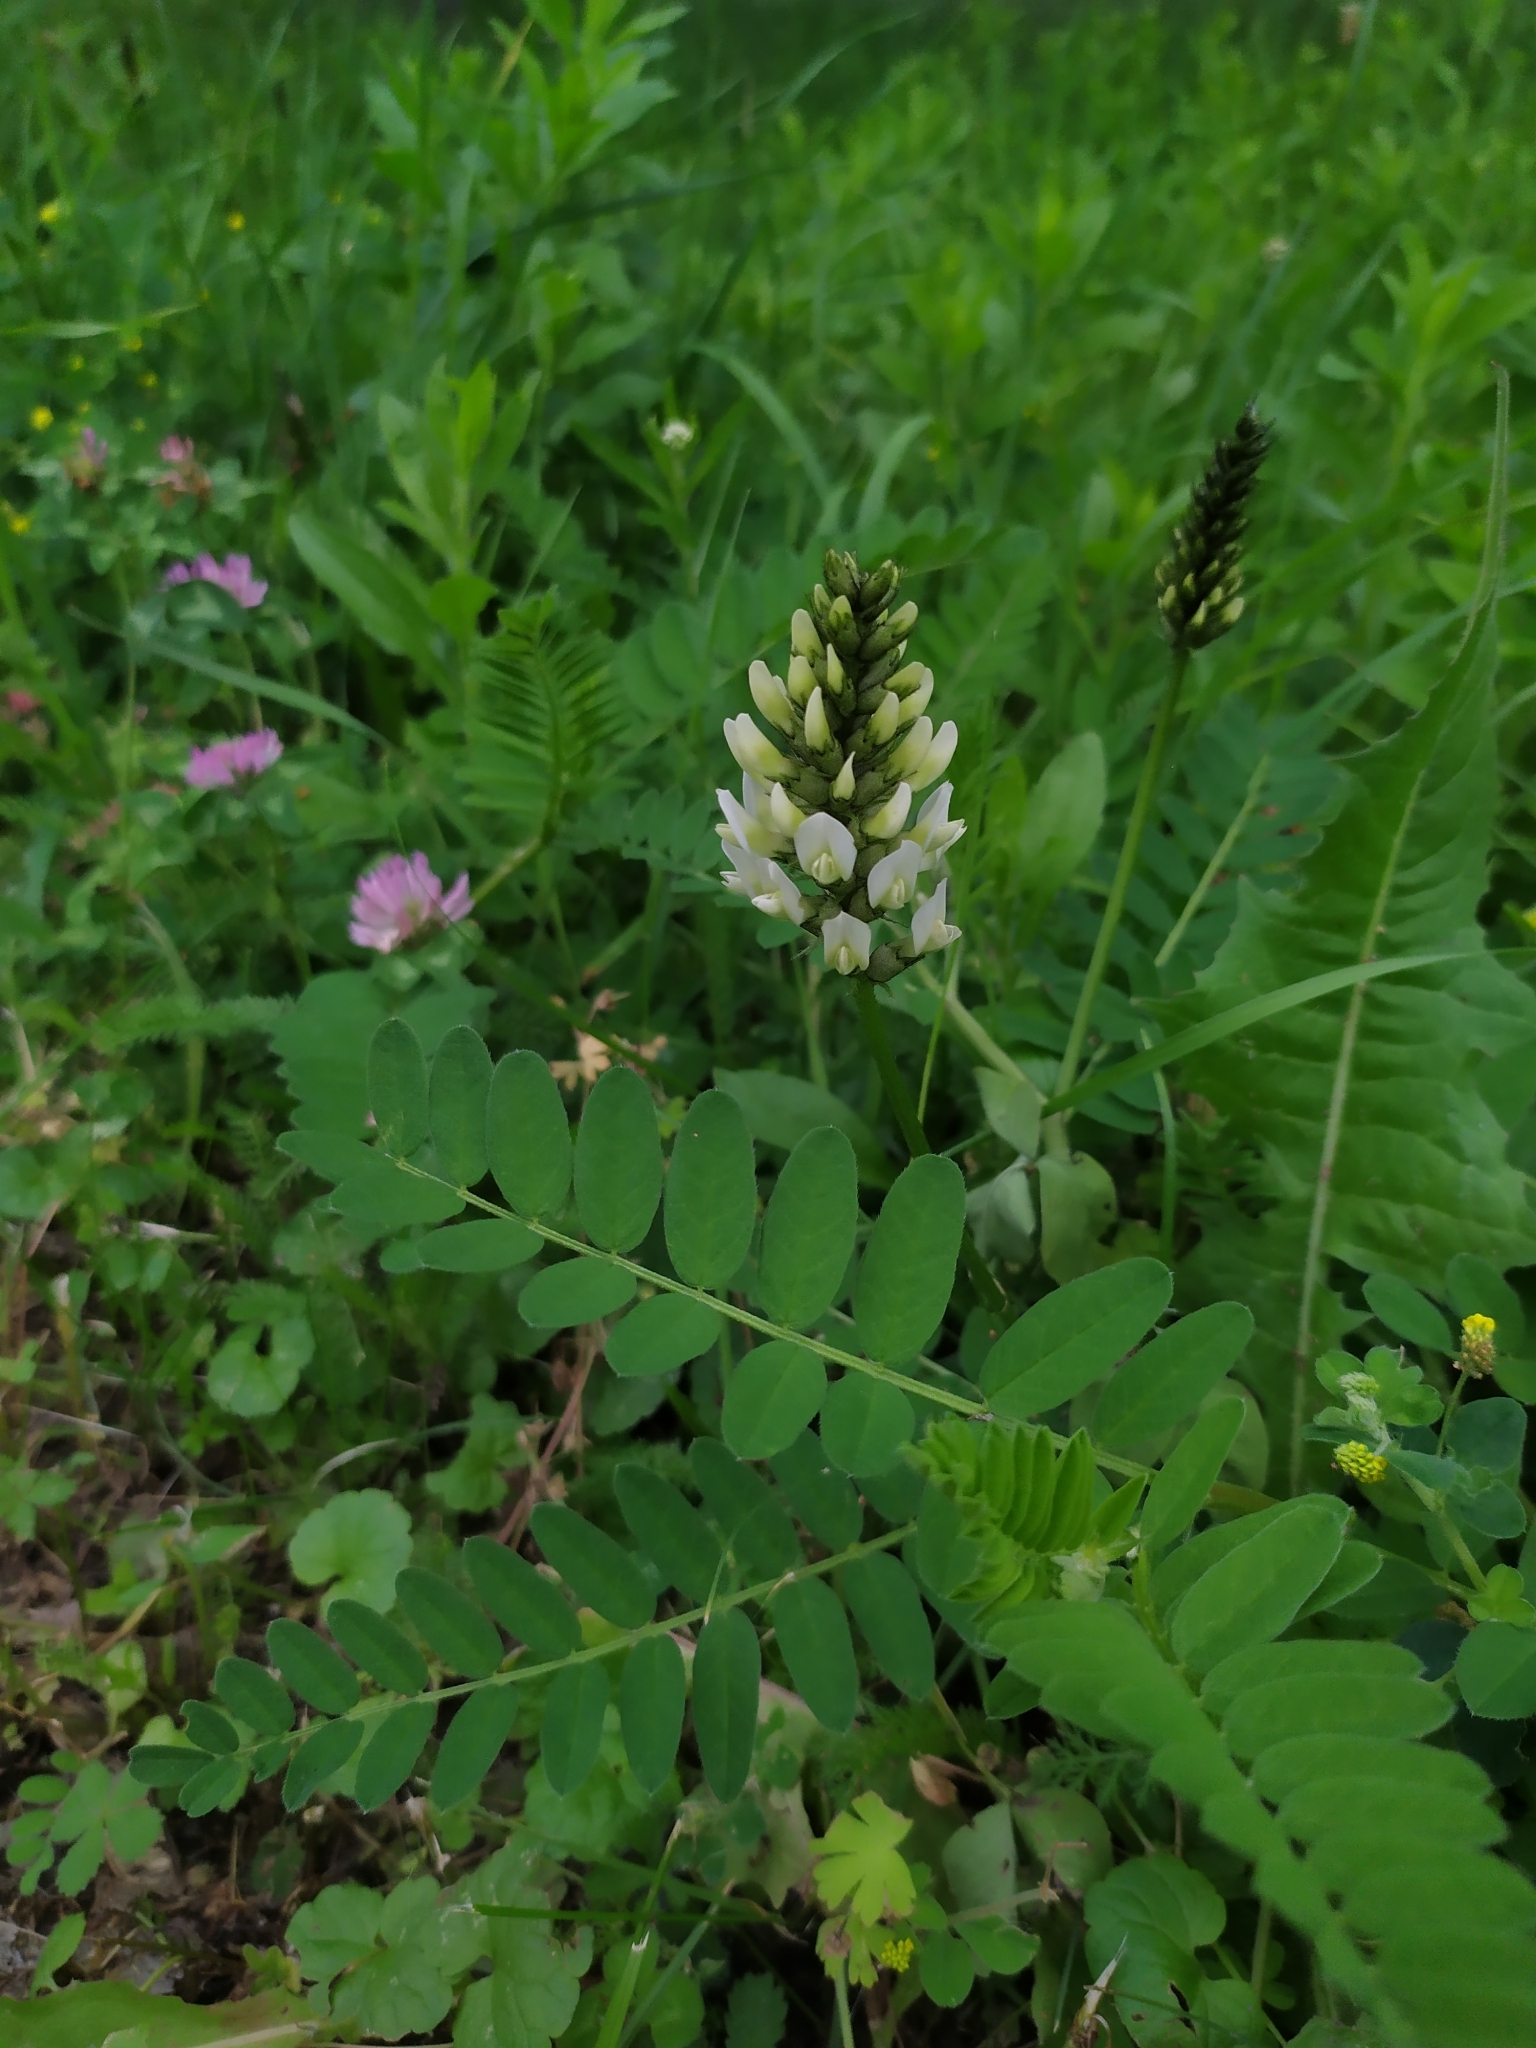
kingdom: Plantae
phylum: Tracheophyta
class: Magnoliopsida
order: Fabales
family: Fabaceae
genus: Astragalus
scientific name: Astragalus cicer
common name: Chick-pea milk-vetch
